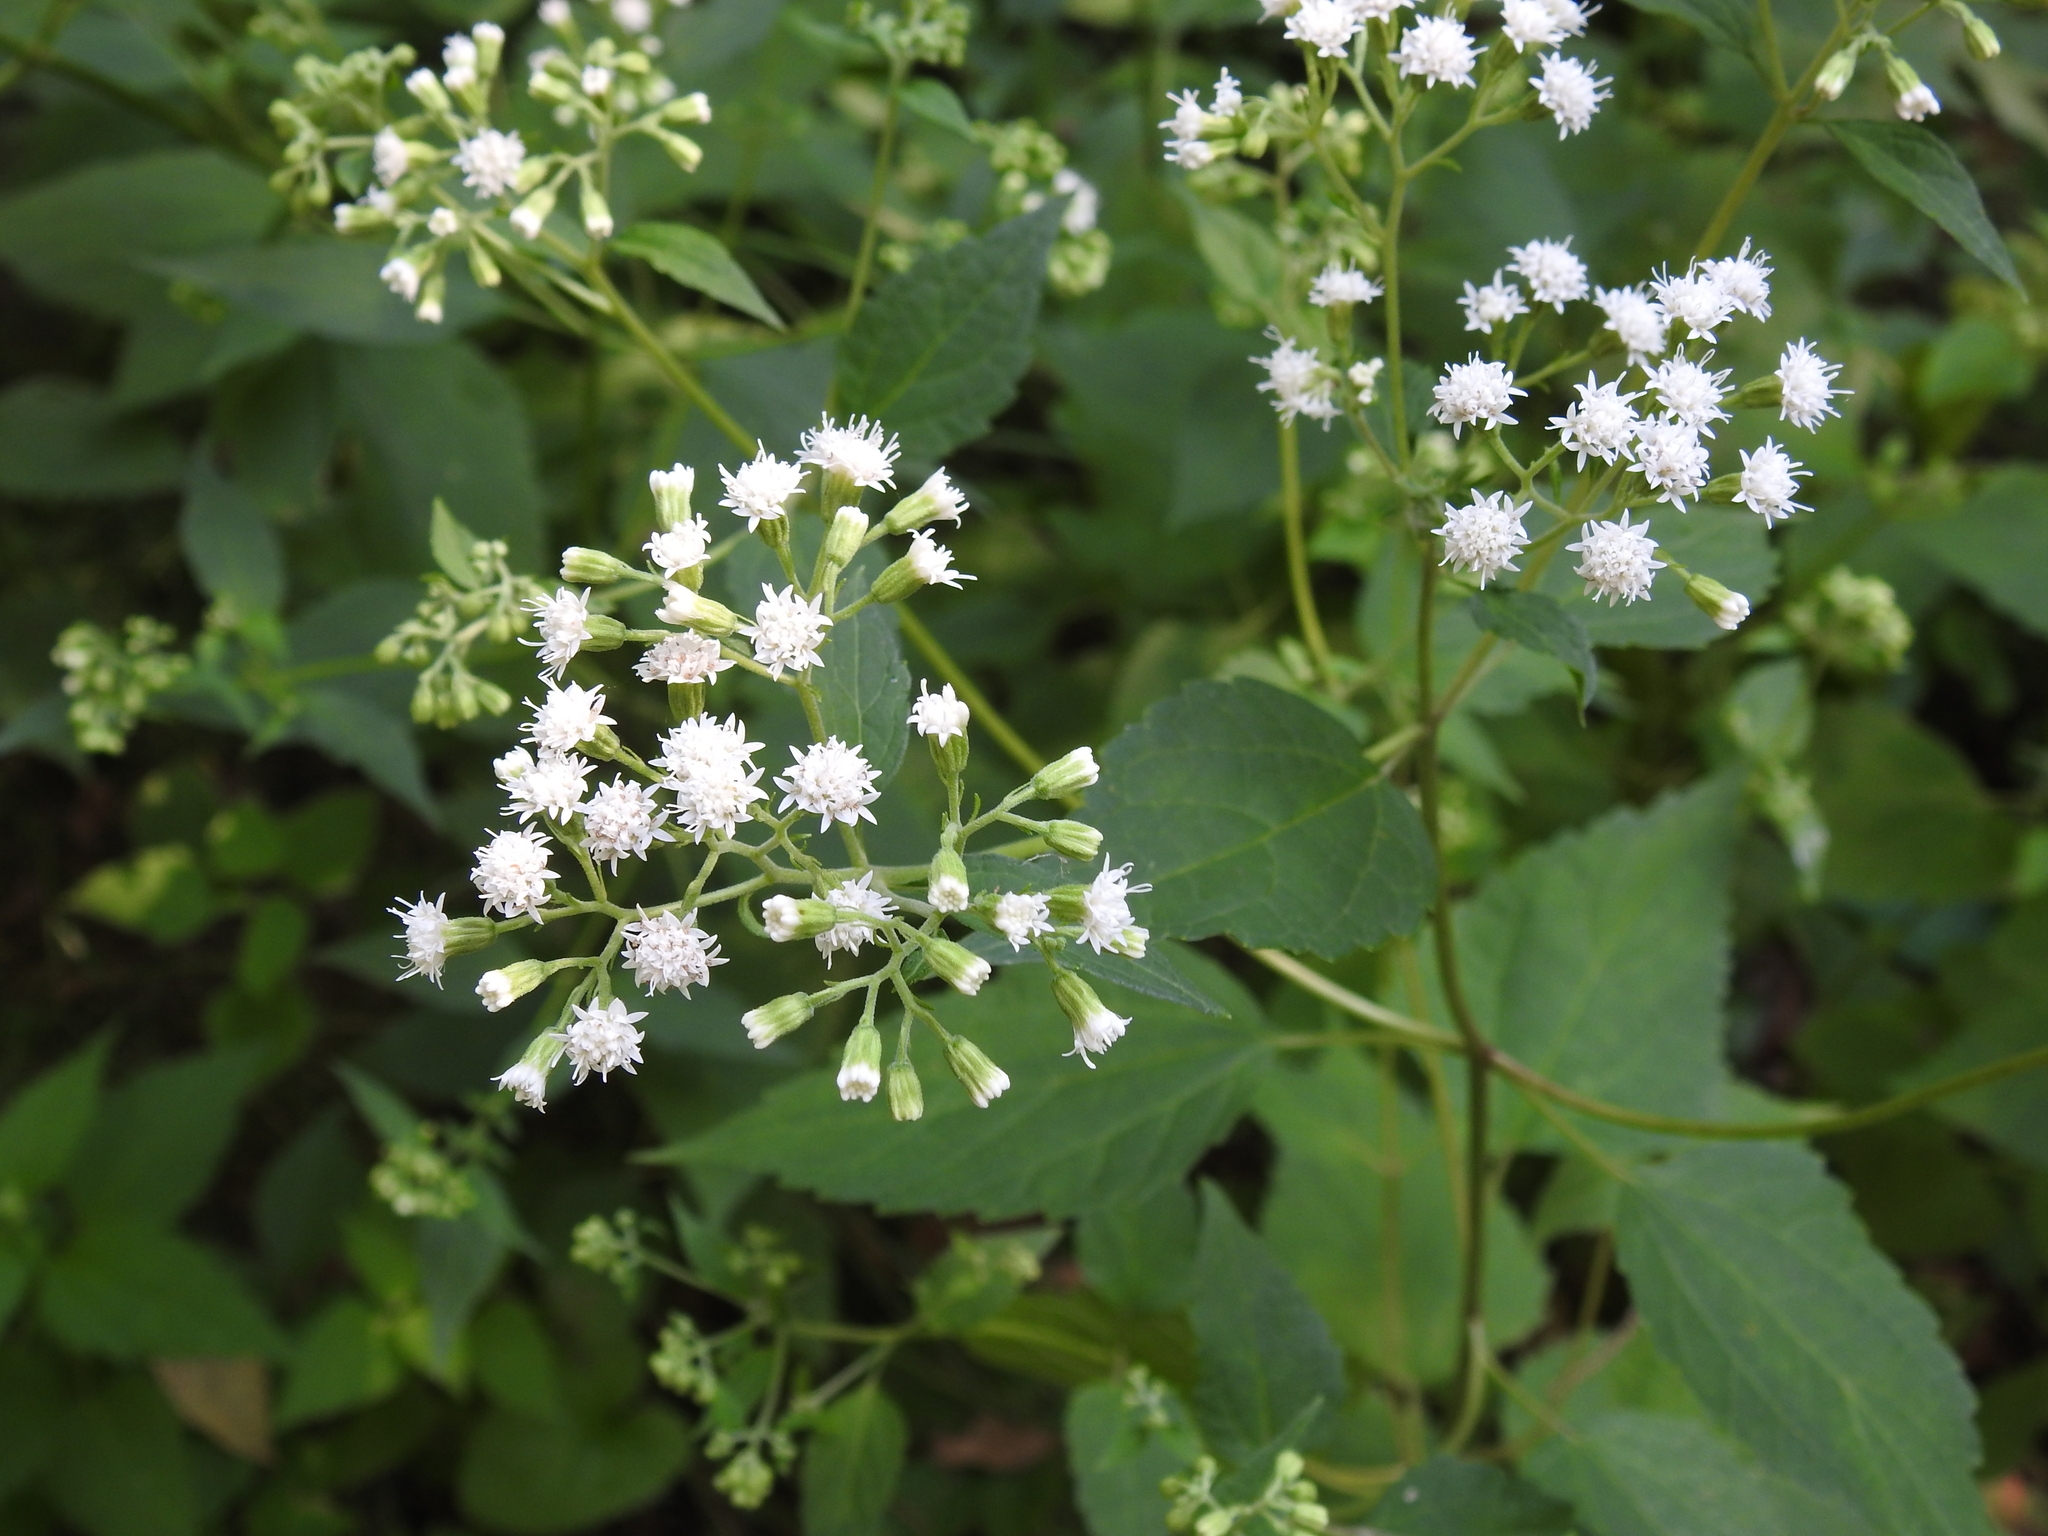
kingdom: Plantae
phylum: Tracheophyta
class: Magnoliopsida
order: Asterales
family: Asteraceae
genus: Ageratina
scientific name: Ageratina altissima
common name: White snakeroot
